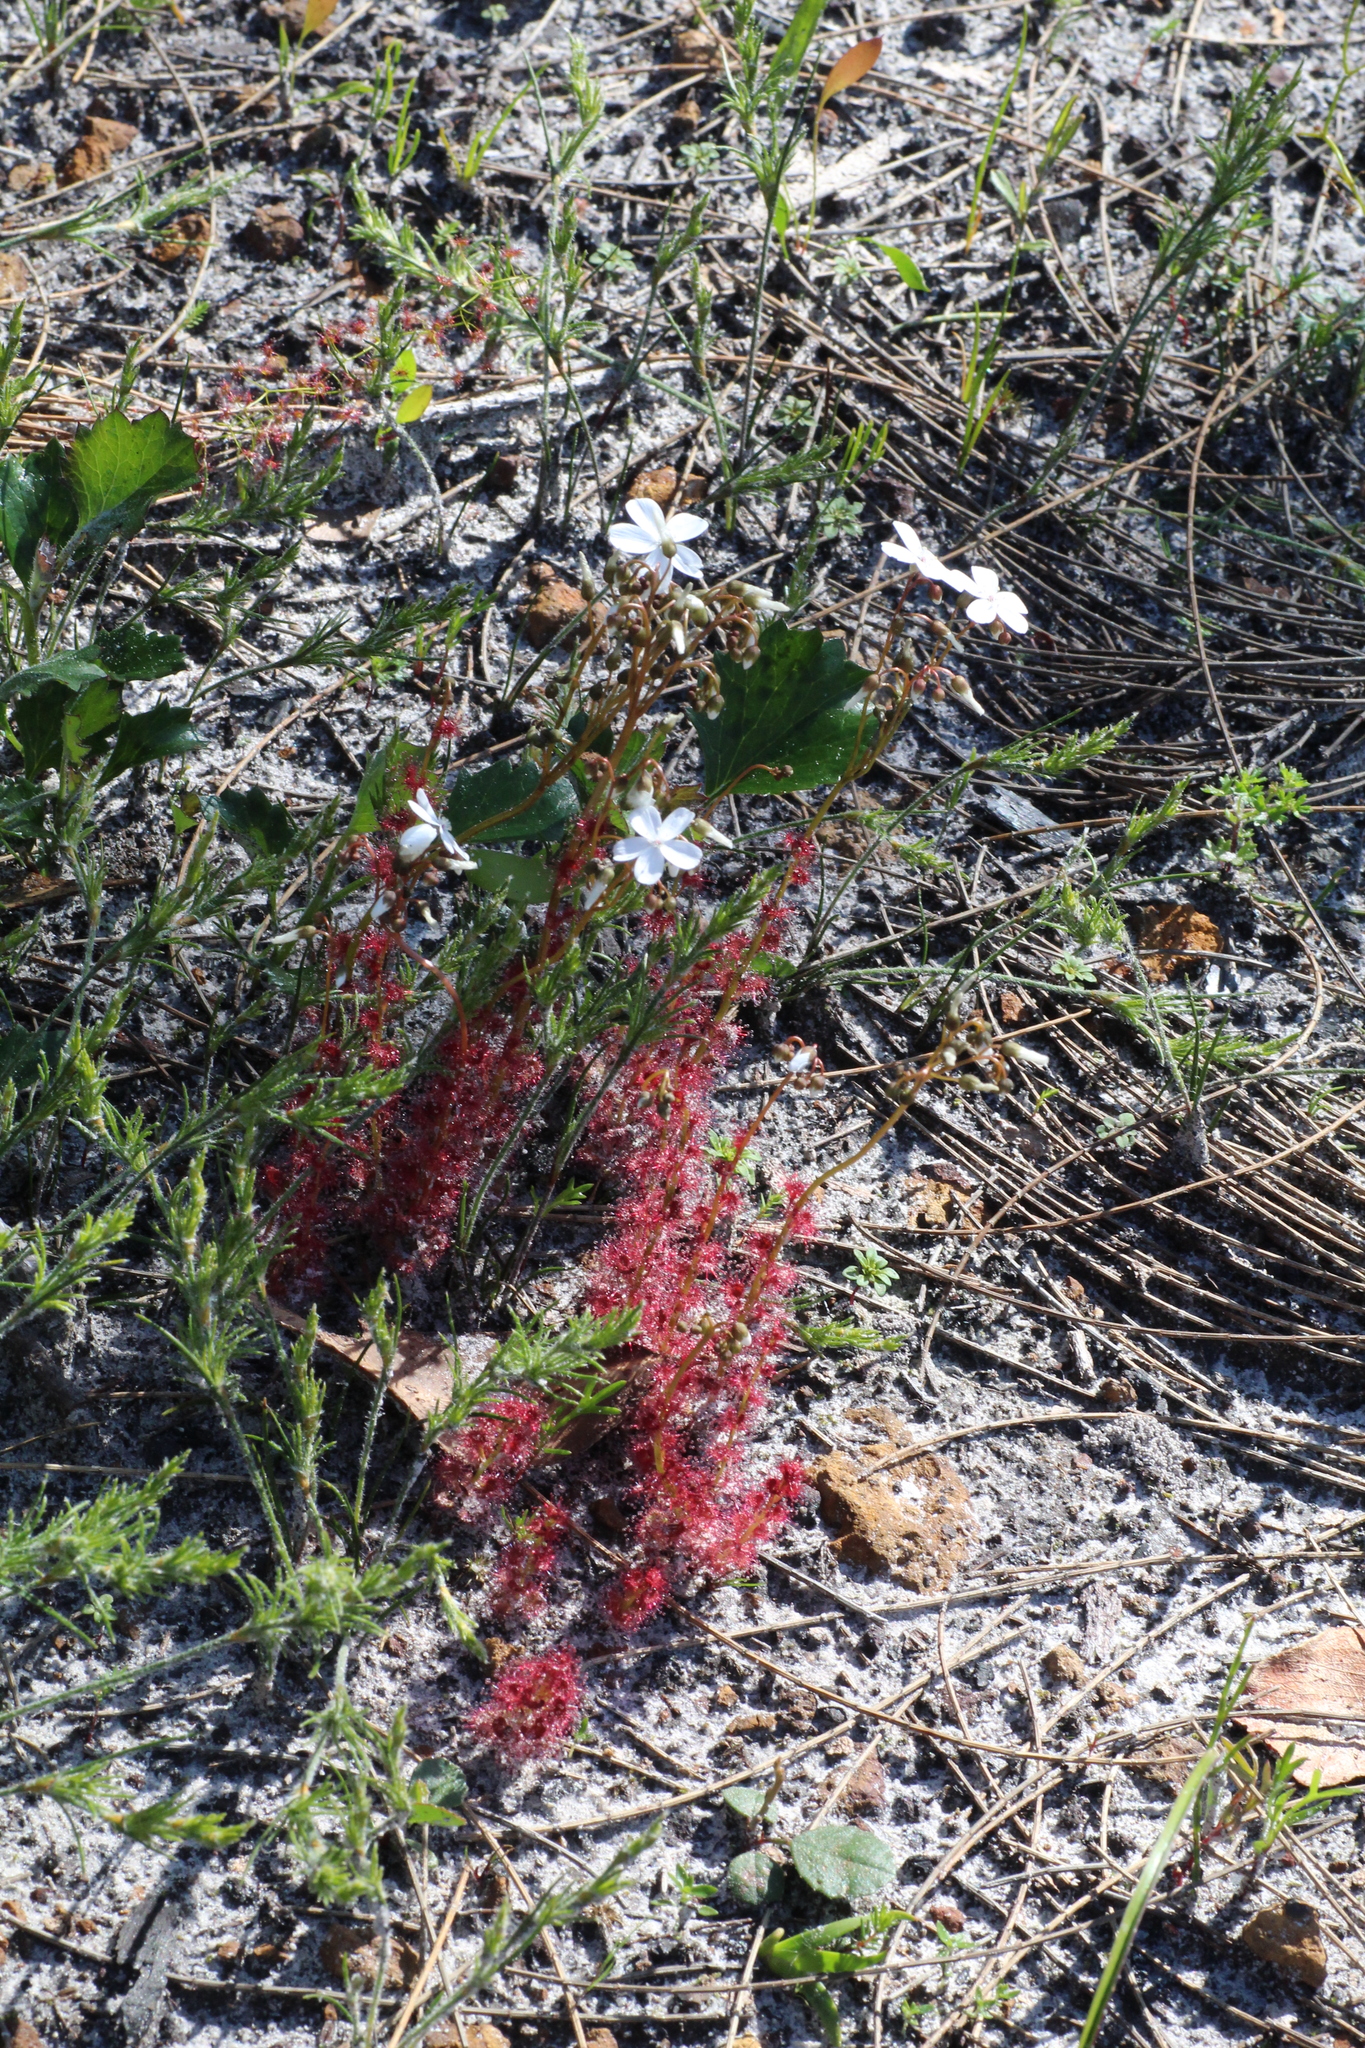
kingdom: Plantae
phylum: Tracheophyta
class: Magnoliopsida
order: Caryophyllales
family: Droseraceae
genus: Drosera
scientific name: Drosera platypoda
